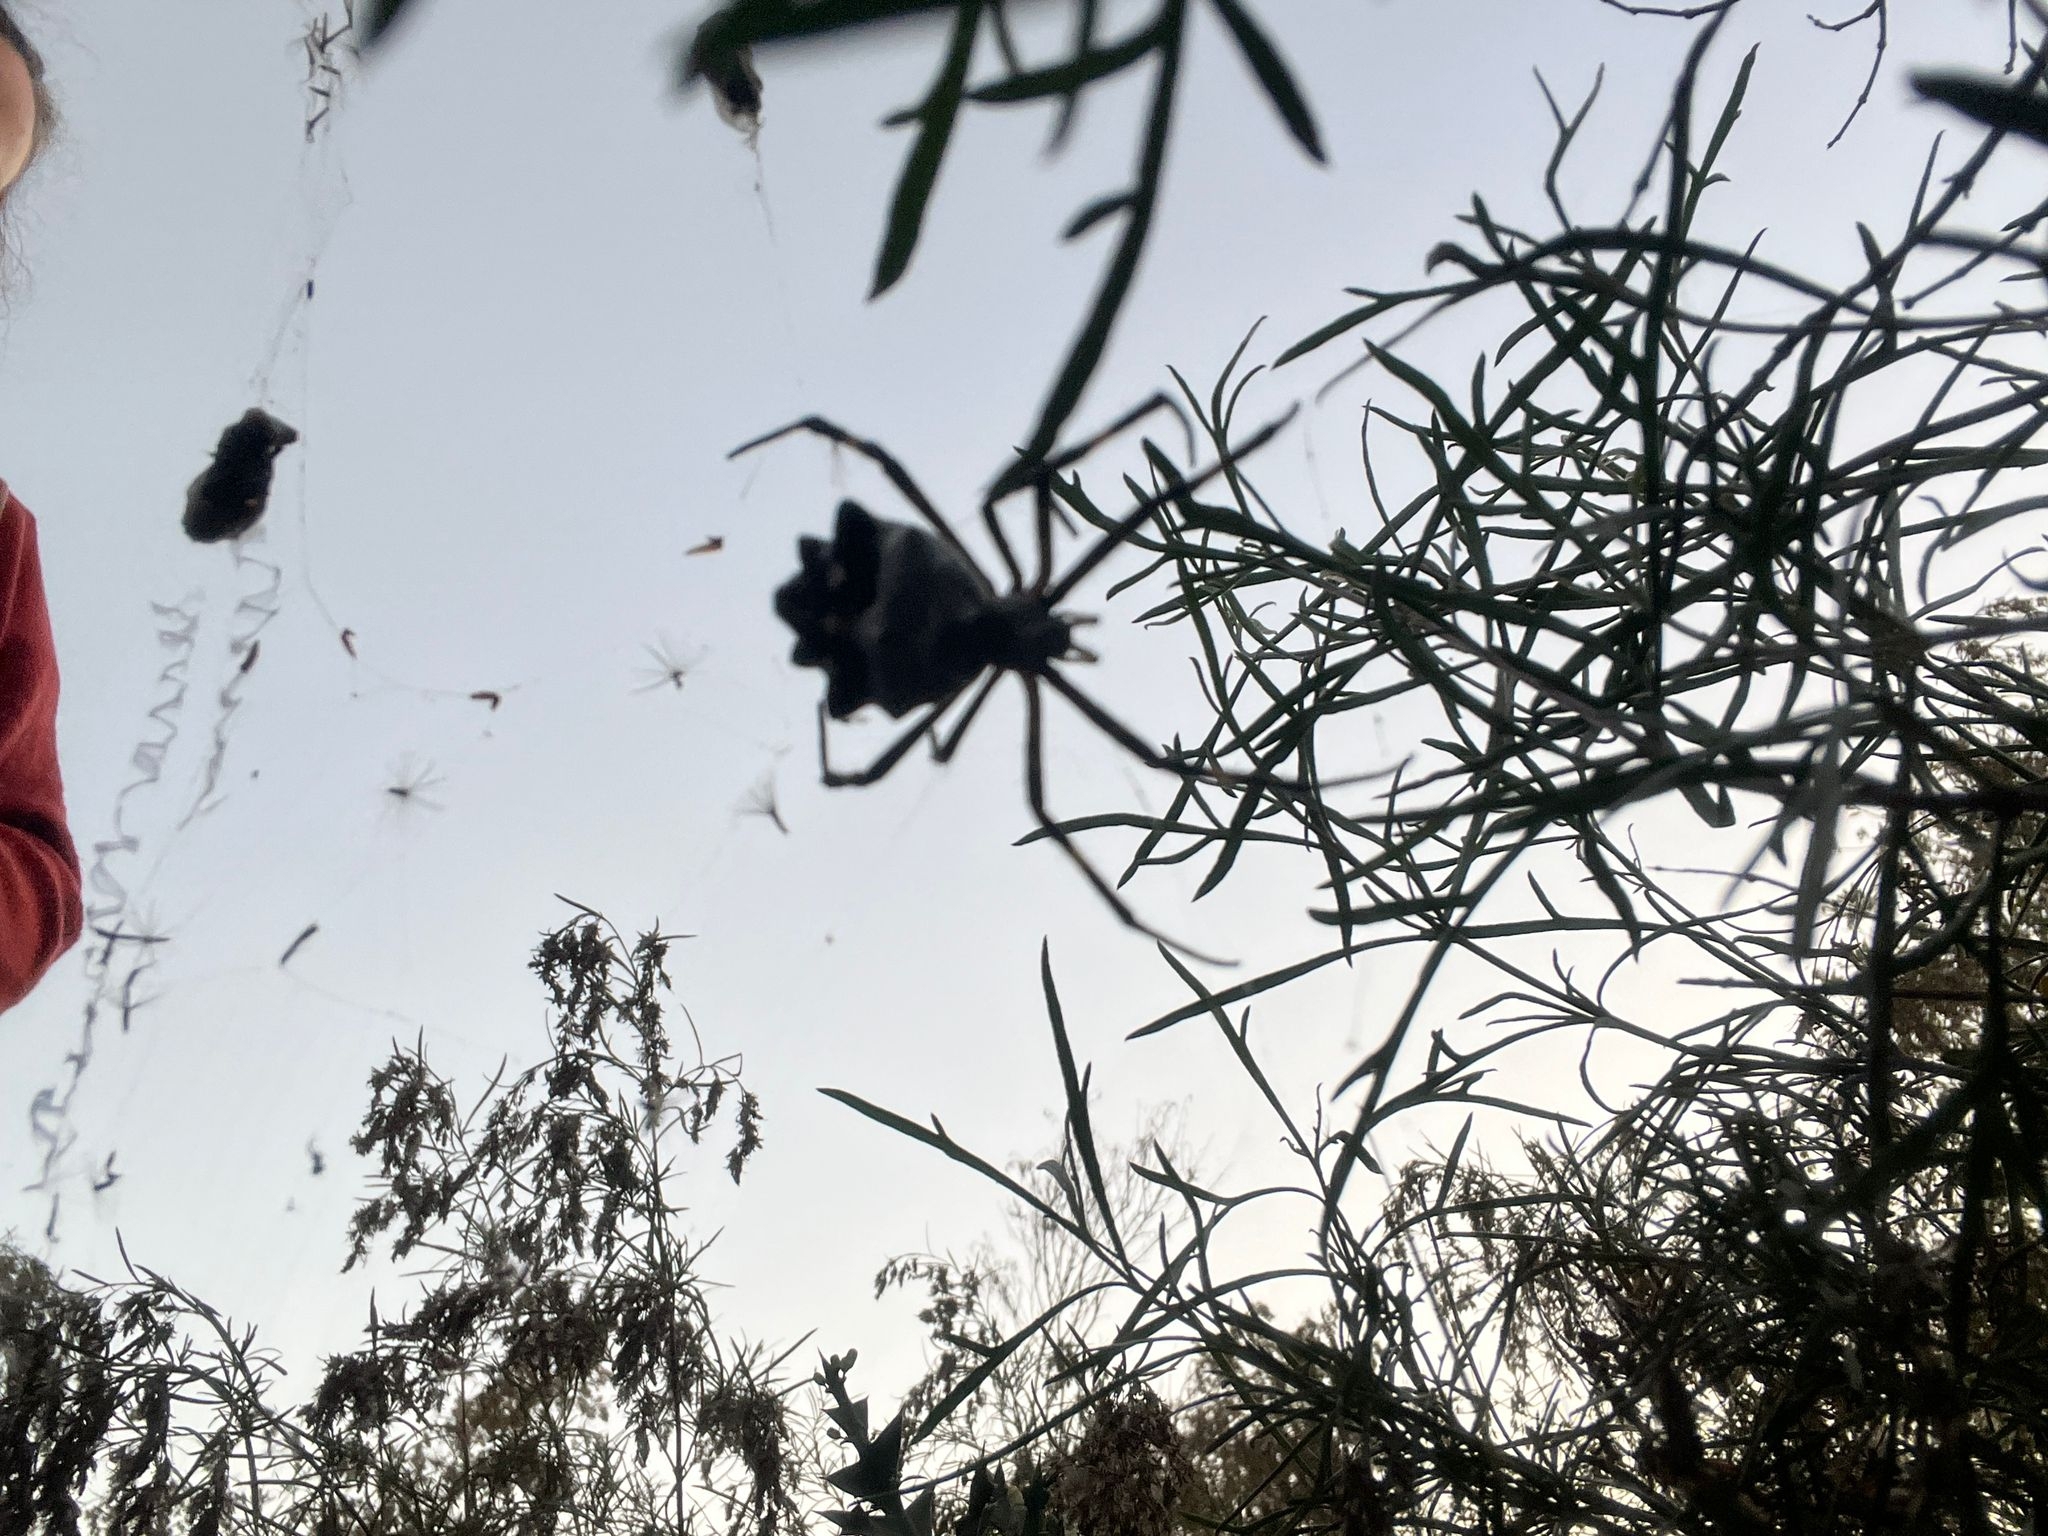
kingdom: Animalia
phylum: Arthropoda
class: Arachnida
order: Araneae
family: Araneidae
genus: Argiope
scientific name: Argiope argentata
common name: Orb weavers
